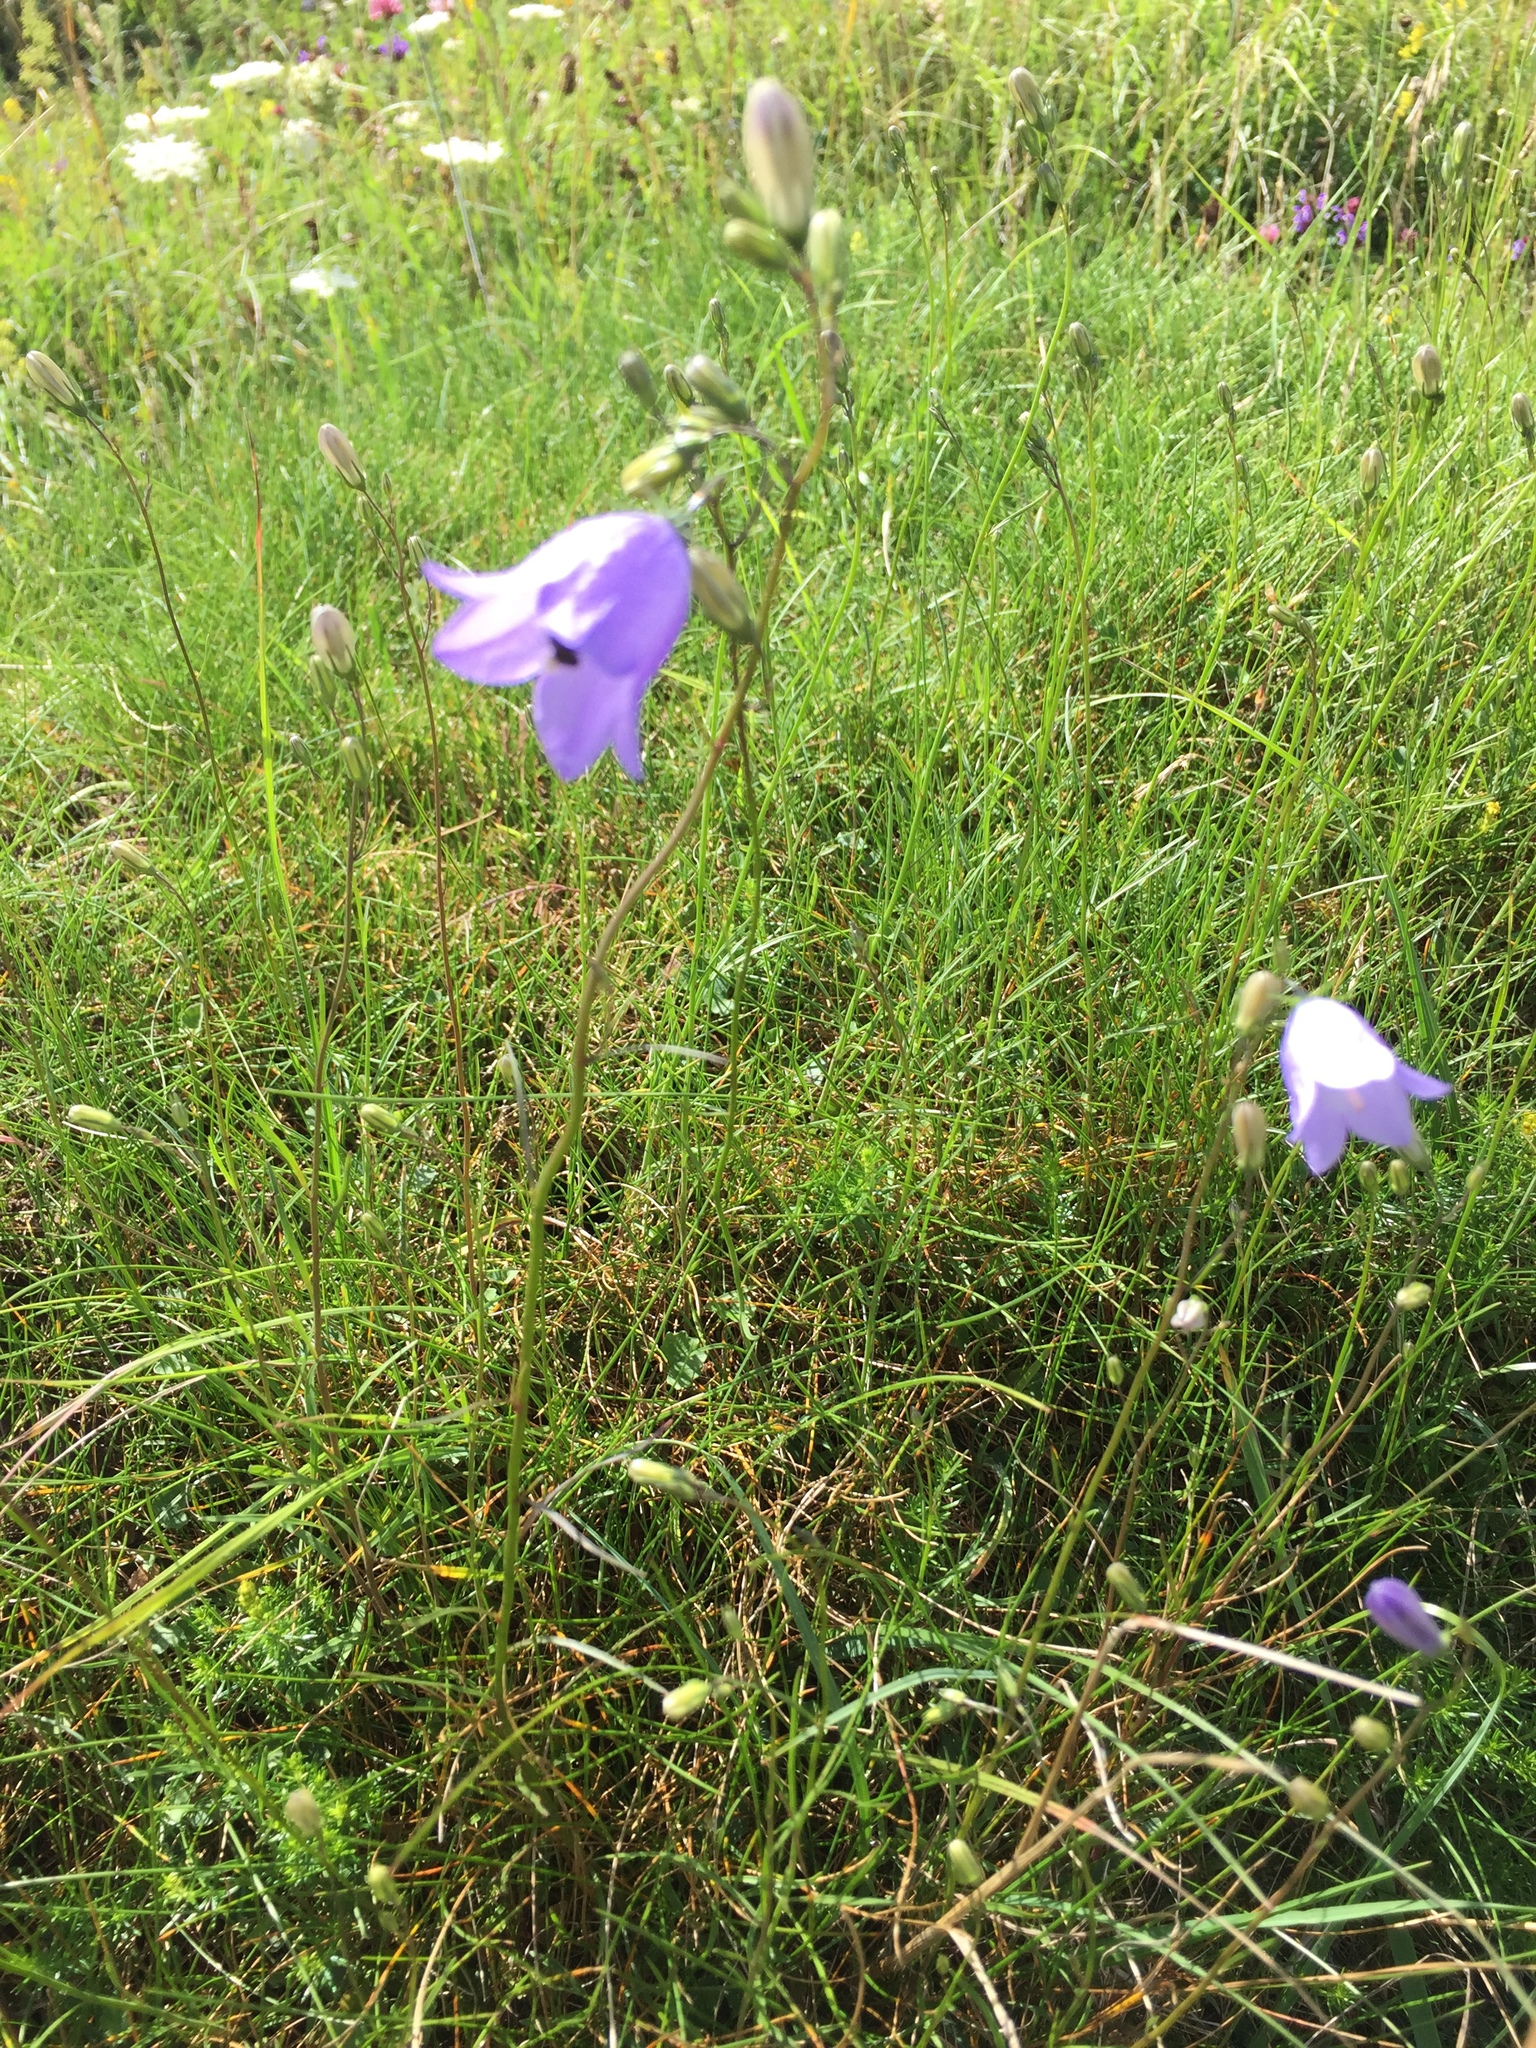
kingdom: Animalia
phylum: Arthropoda
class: Insecta
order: Lepidoptera
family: Nymphalidae
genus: Maniola
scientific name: Maniola jurtina
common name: Meadow brown
